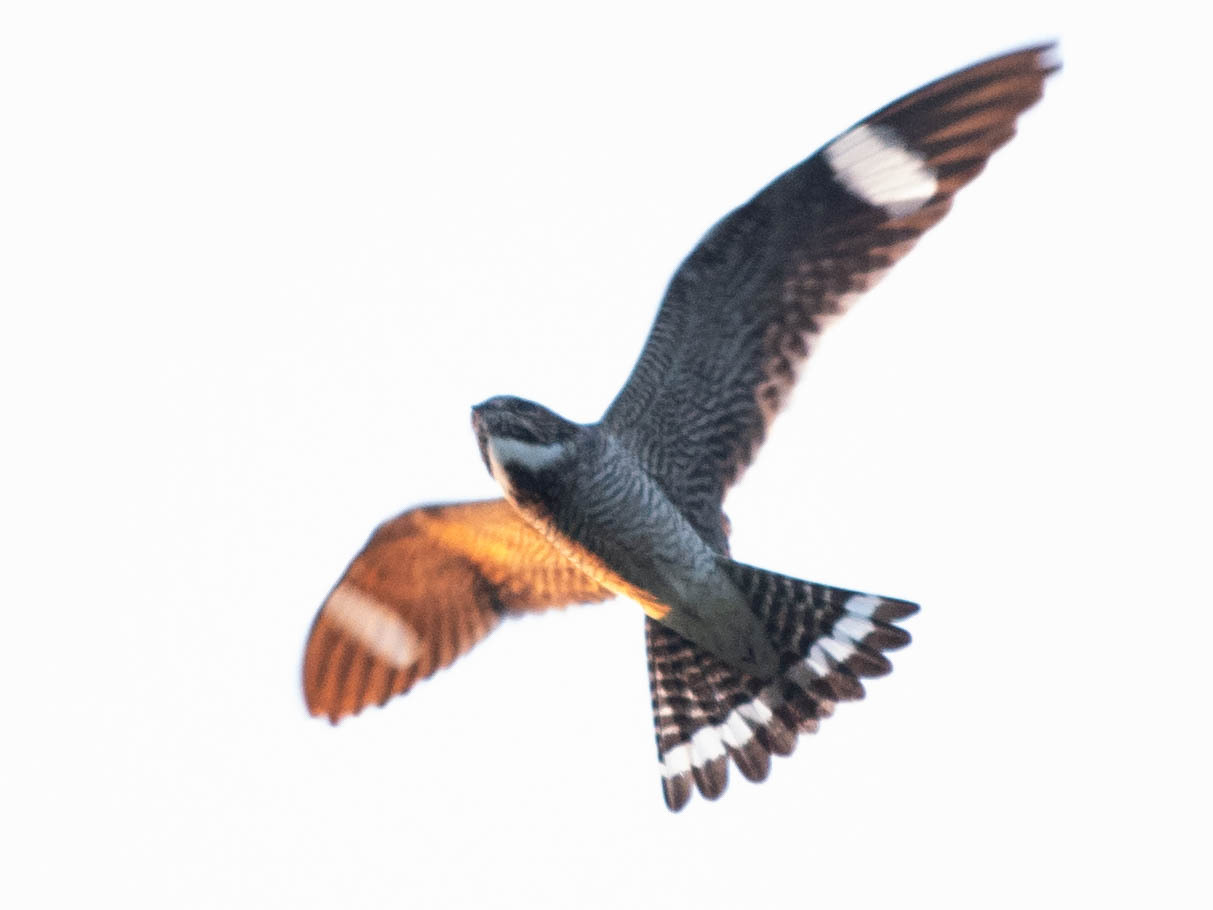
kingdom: Animalia
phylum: Chordata
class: Aves
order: Caprimulgiformes
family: Caprimulgidae
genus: Chordeiles
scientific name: Chordeiles minor
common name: Common nighthawk
